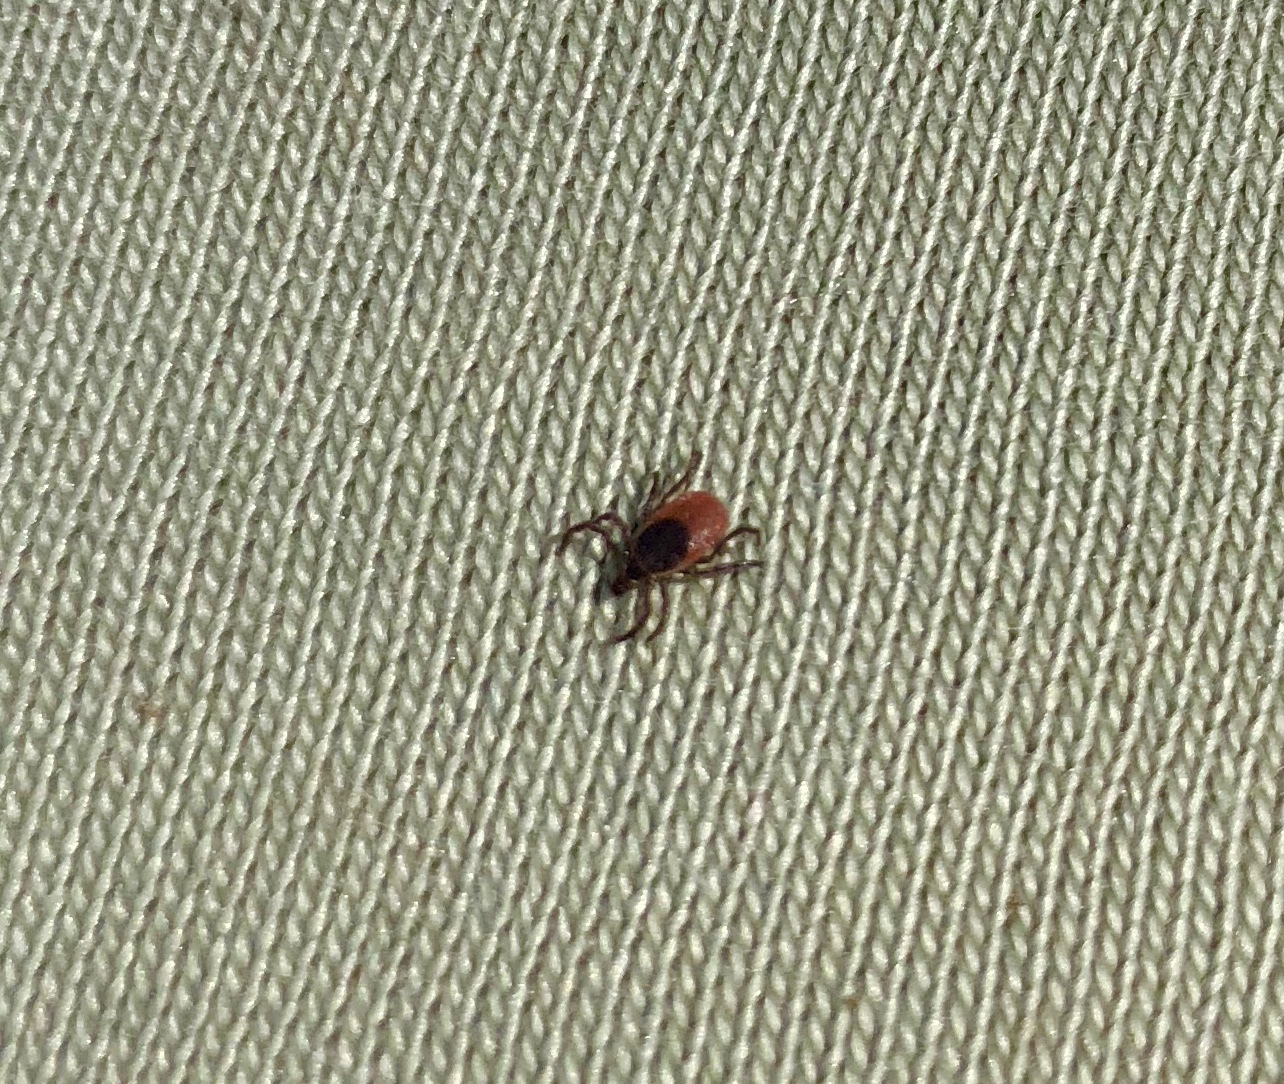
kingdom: Animalia
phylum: Arthropoda
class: Arachnida
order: Ixodida
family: Ixodidae
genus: Ixodes
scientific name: Ixodes scapularis
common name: Black legged tick
